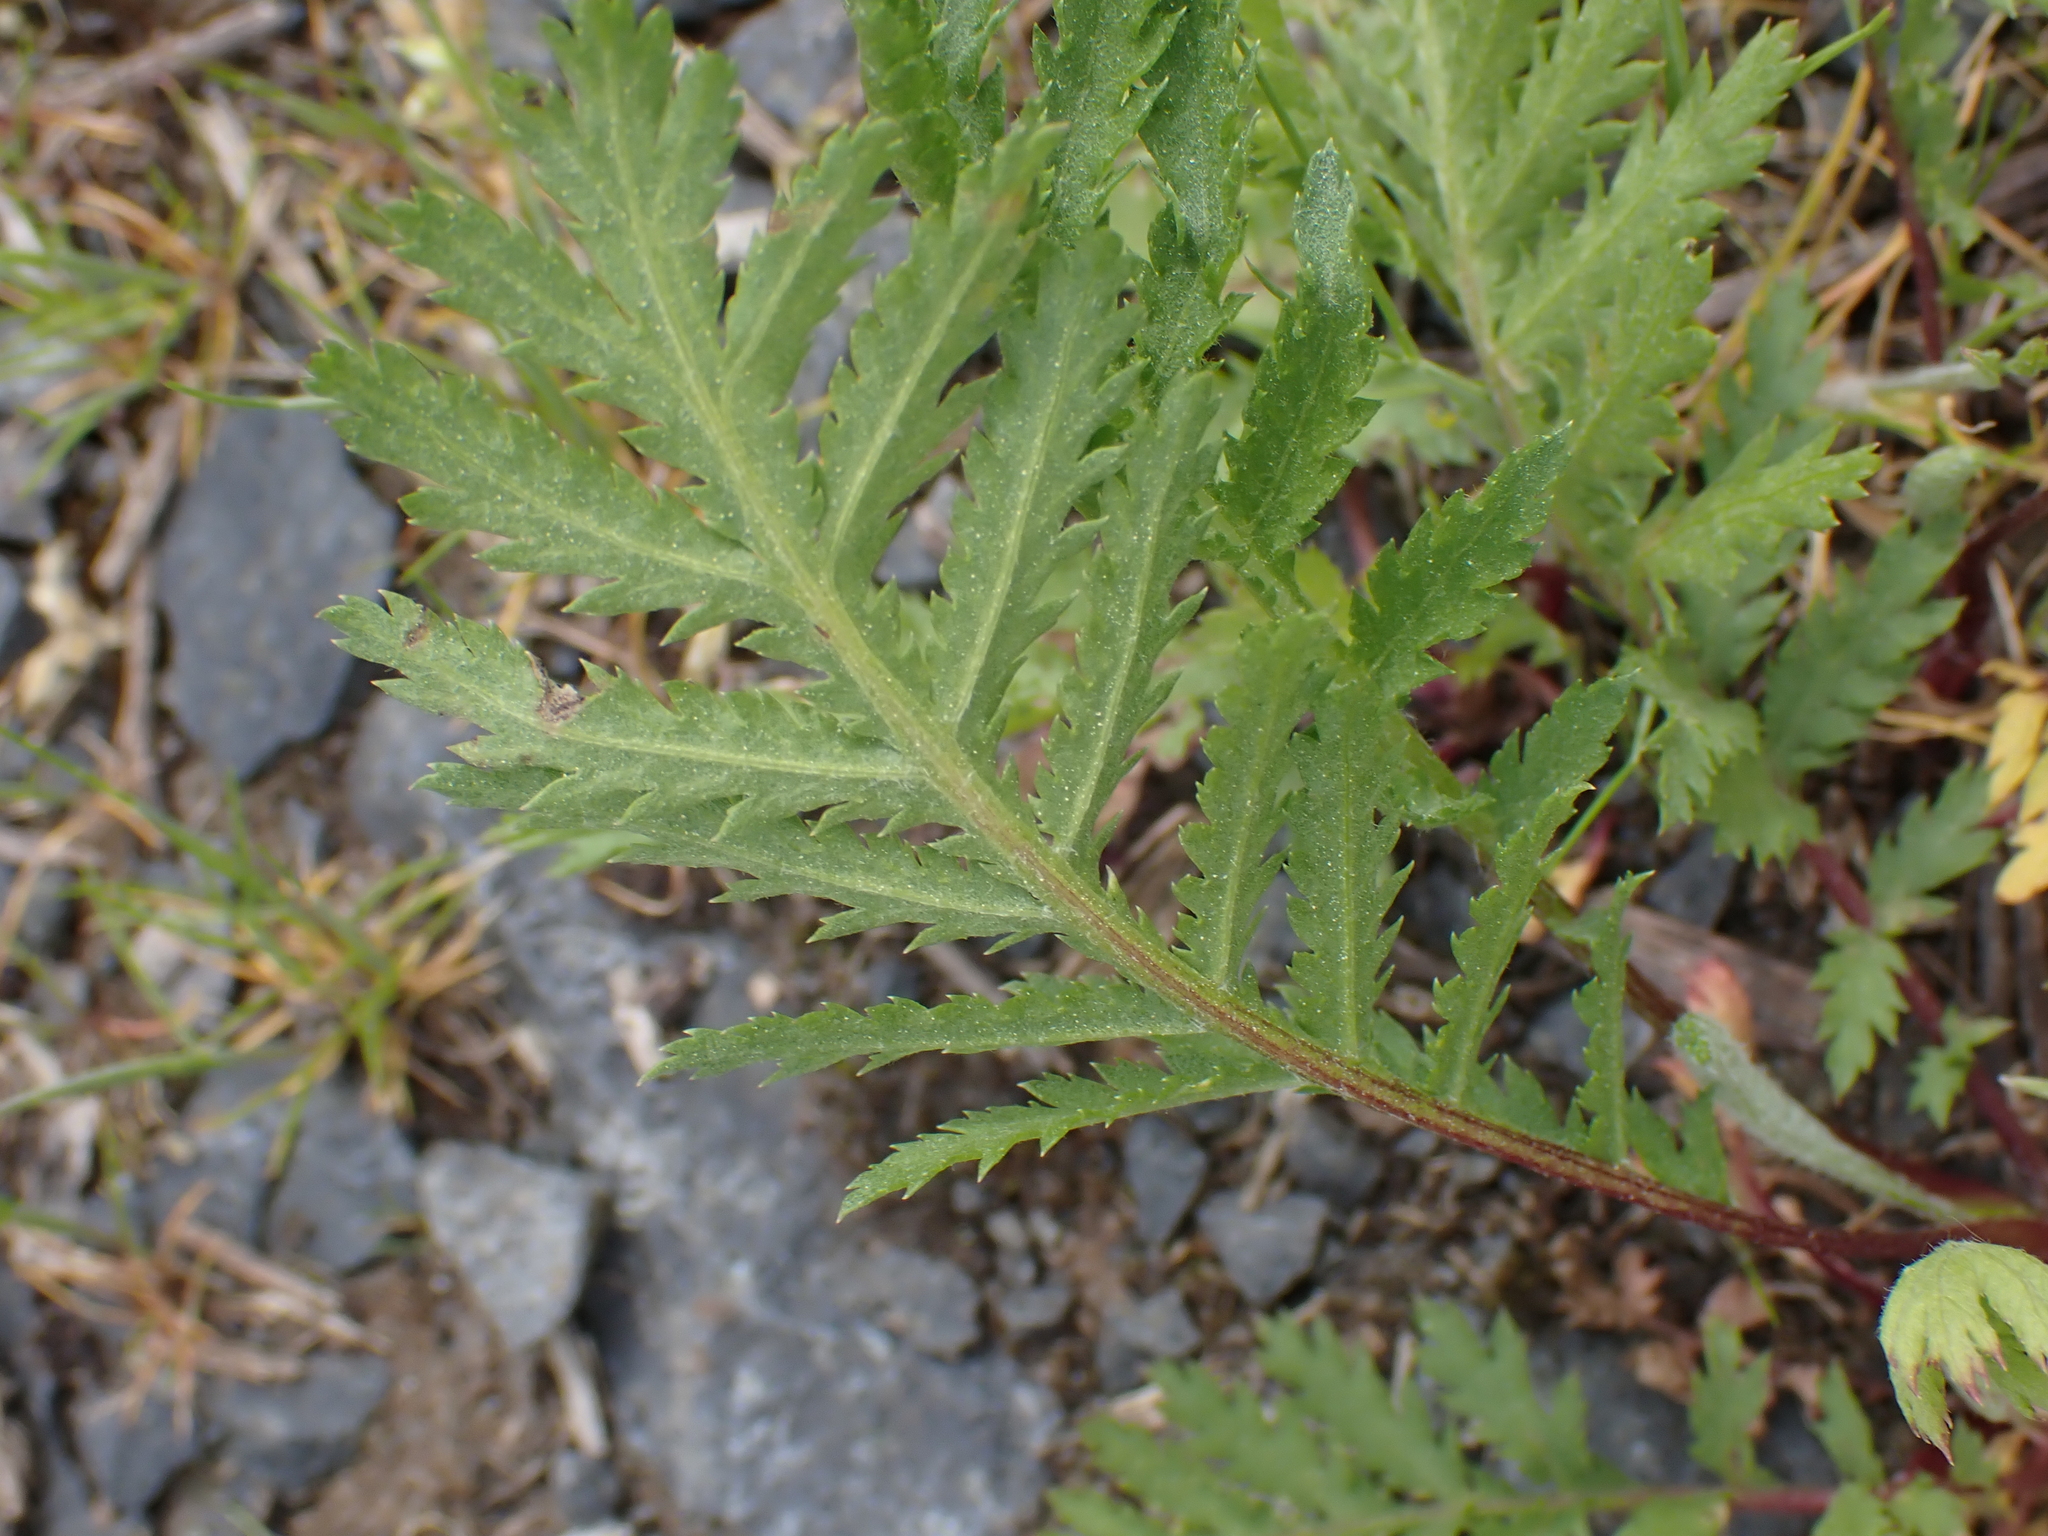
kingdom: Plantae
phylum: Tracheophyta
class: Magnoliopsida
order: Asterales
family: Asteraceae
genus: Tanacetum
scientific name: Tanacetum vulgare
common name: Common tansy
